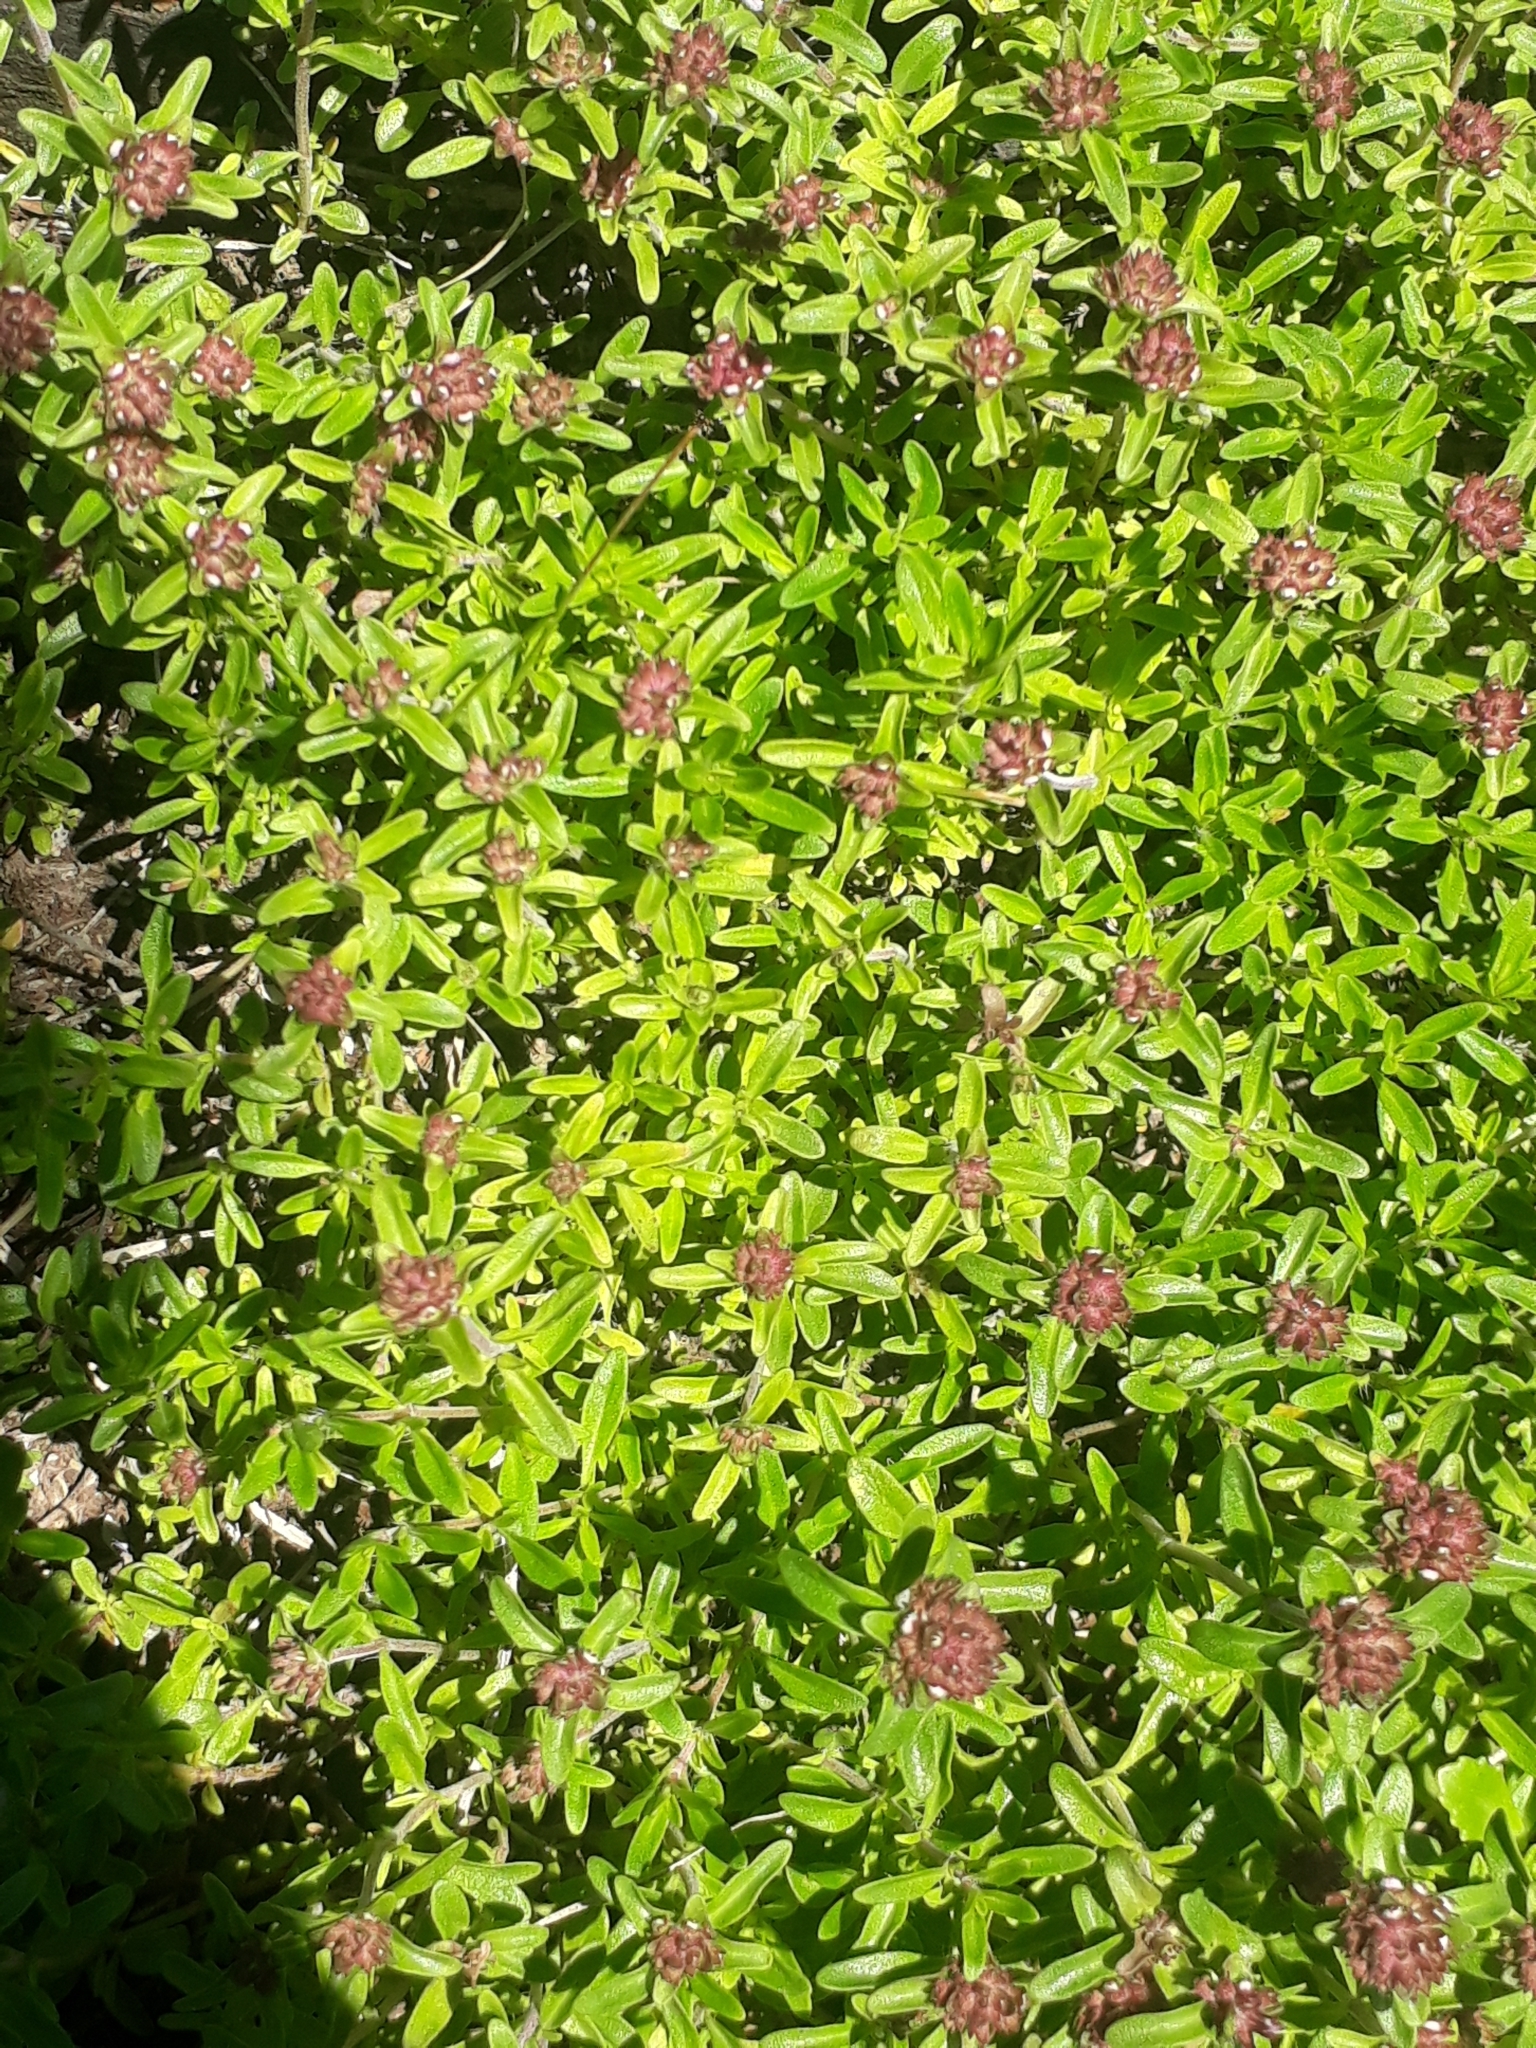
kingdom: Plantae
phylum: Tracheophyta
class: Magnoliopsida
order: Lamiales
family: Lamiaceae
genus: Thymus
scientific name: Thymus petraeus
